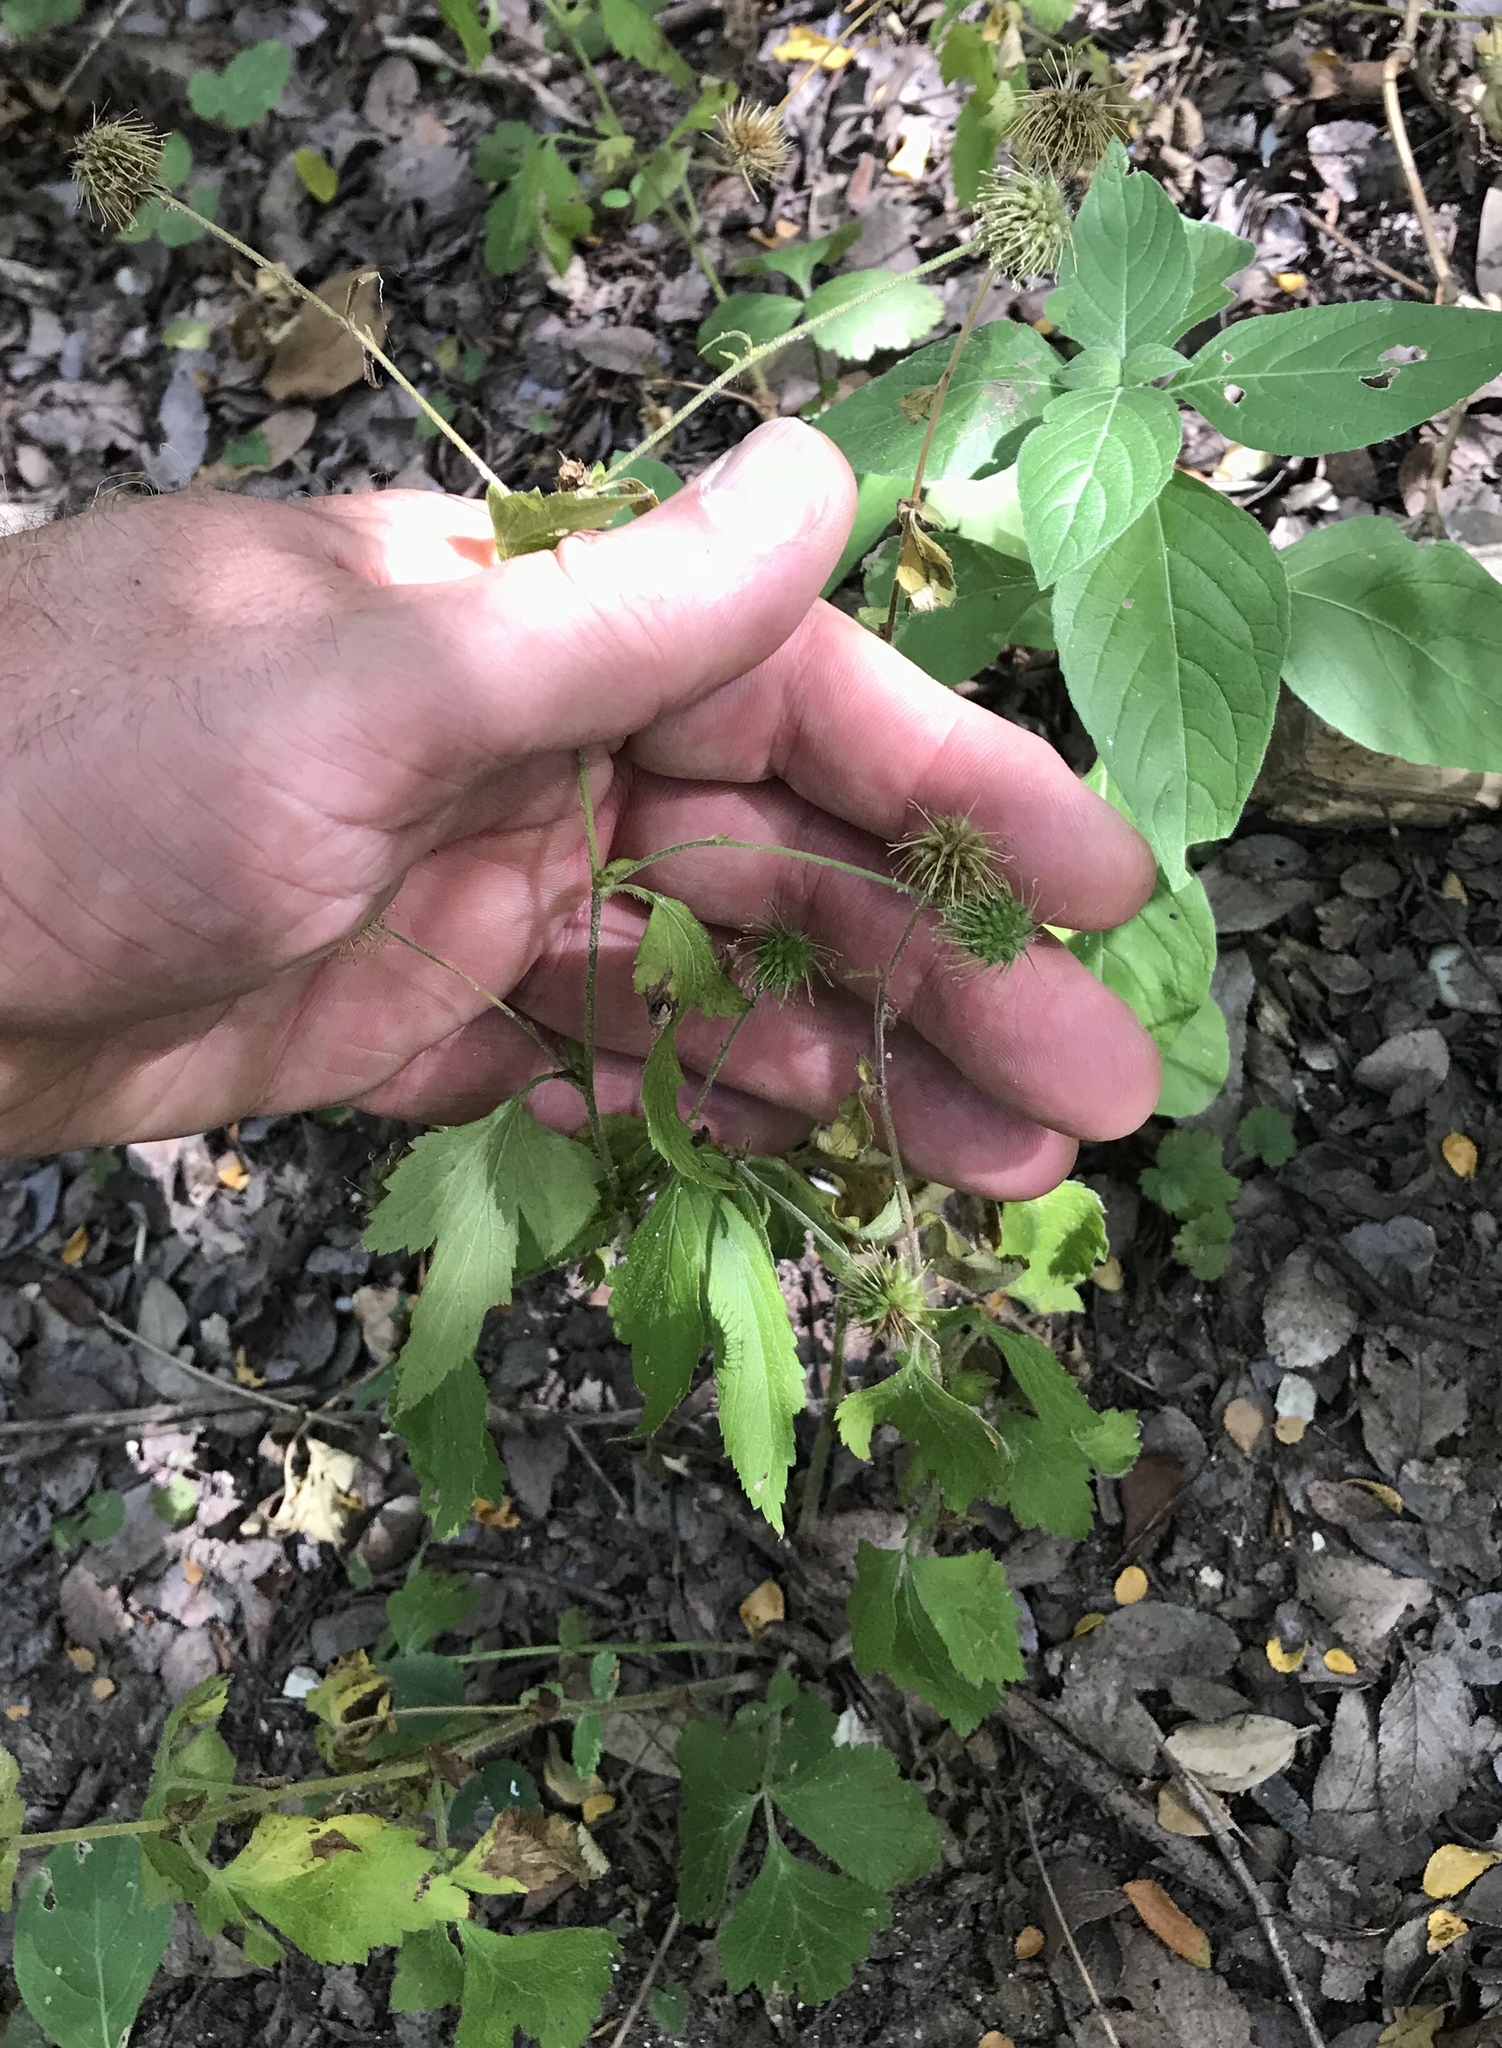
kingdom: Plantae
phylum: Tracheophyta
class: Magnoliopsida
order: Rosales
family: Rosaceae
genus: Geum
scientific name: Geum canadense
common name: White avens
